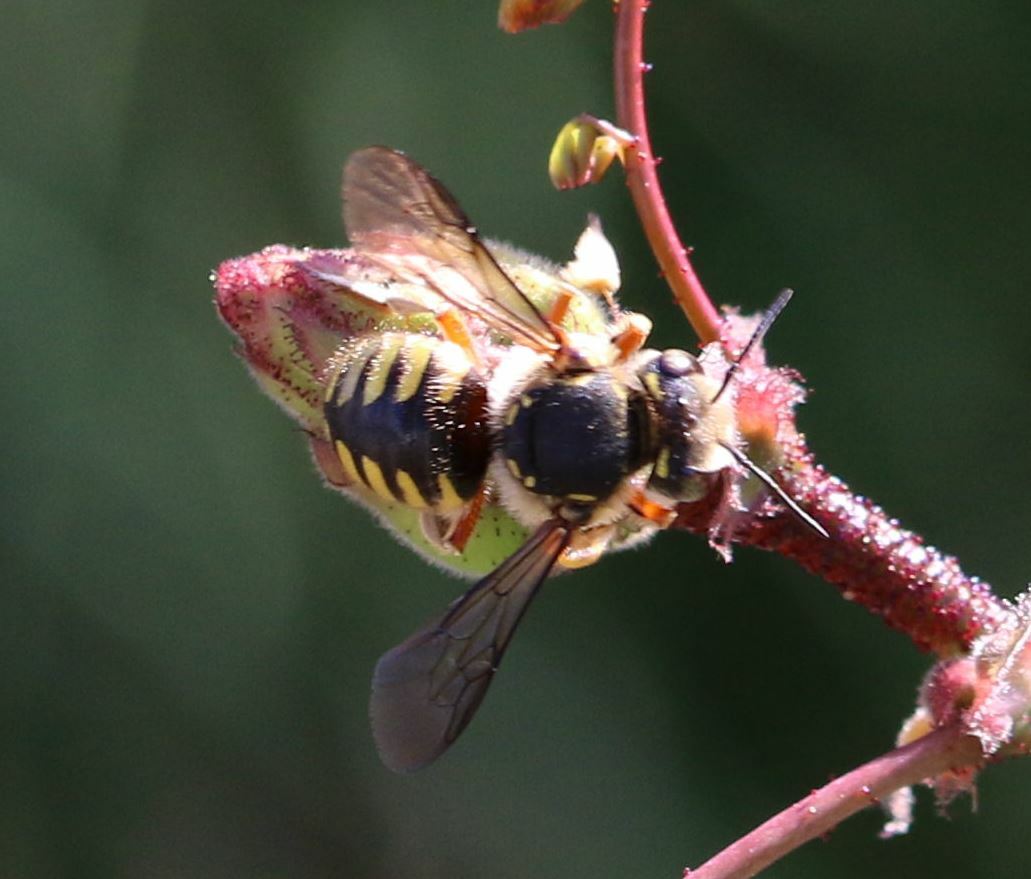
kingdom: Animalia
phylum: Arthropoda
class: Insecta
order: Hymenoptera
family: Megachilidae
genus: Anthidium
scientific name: Anthidium manicatum
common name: Wool carder bee
